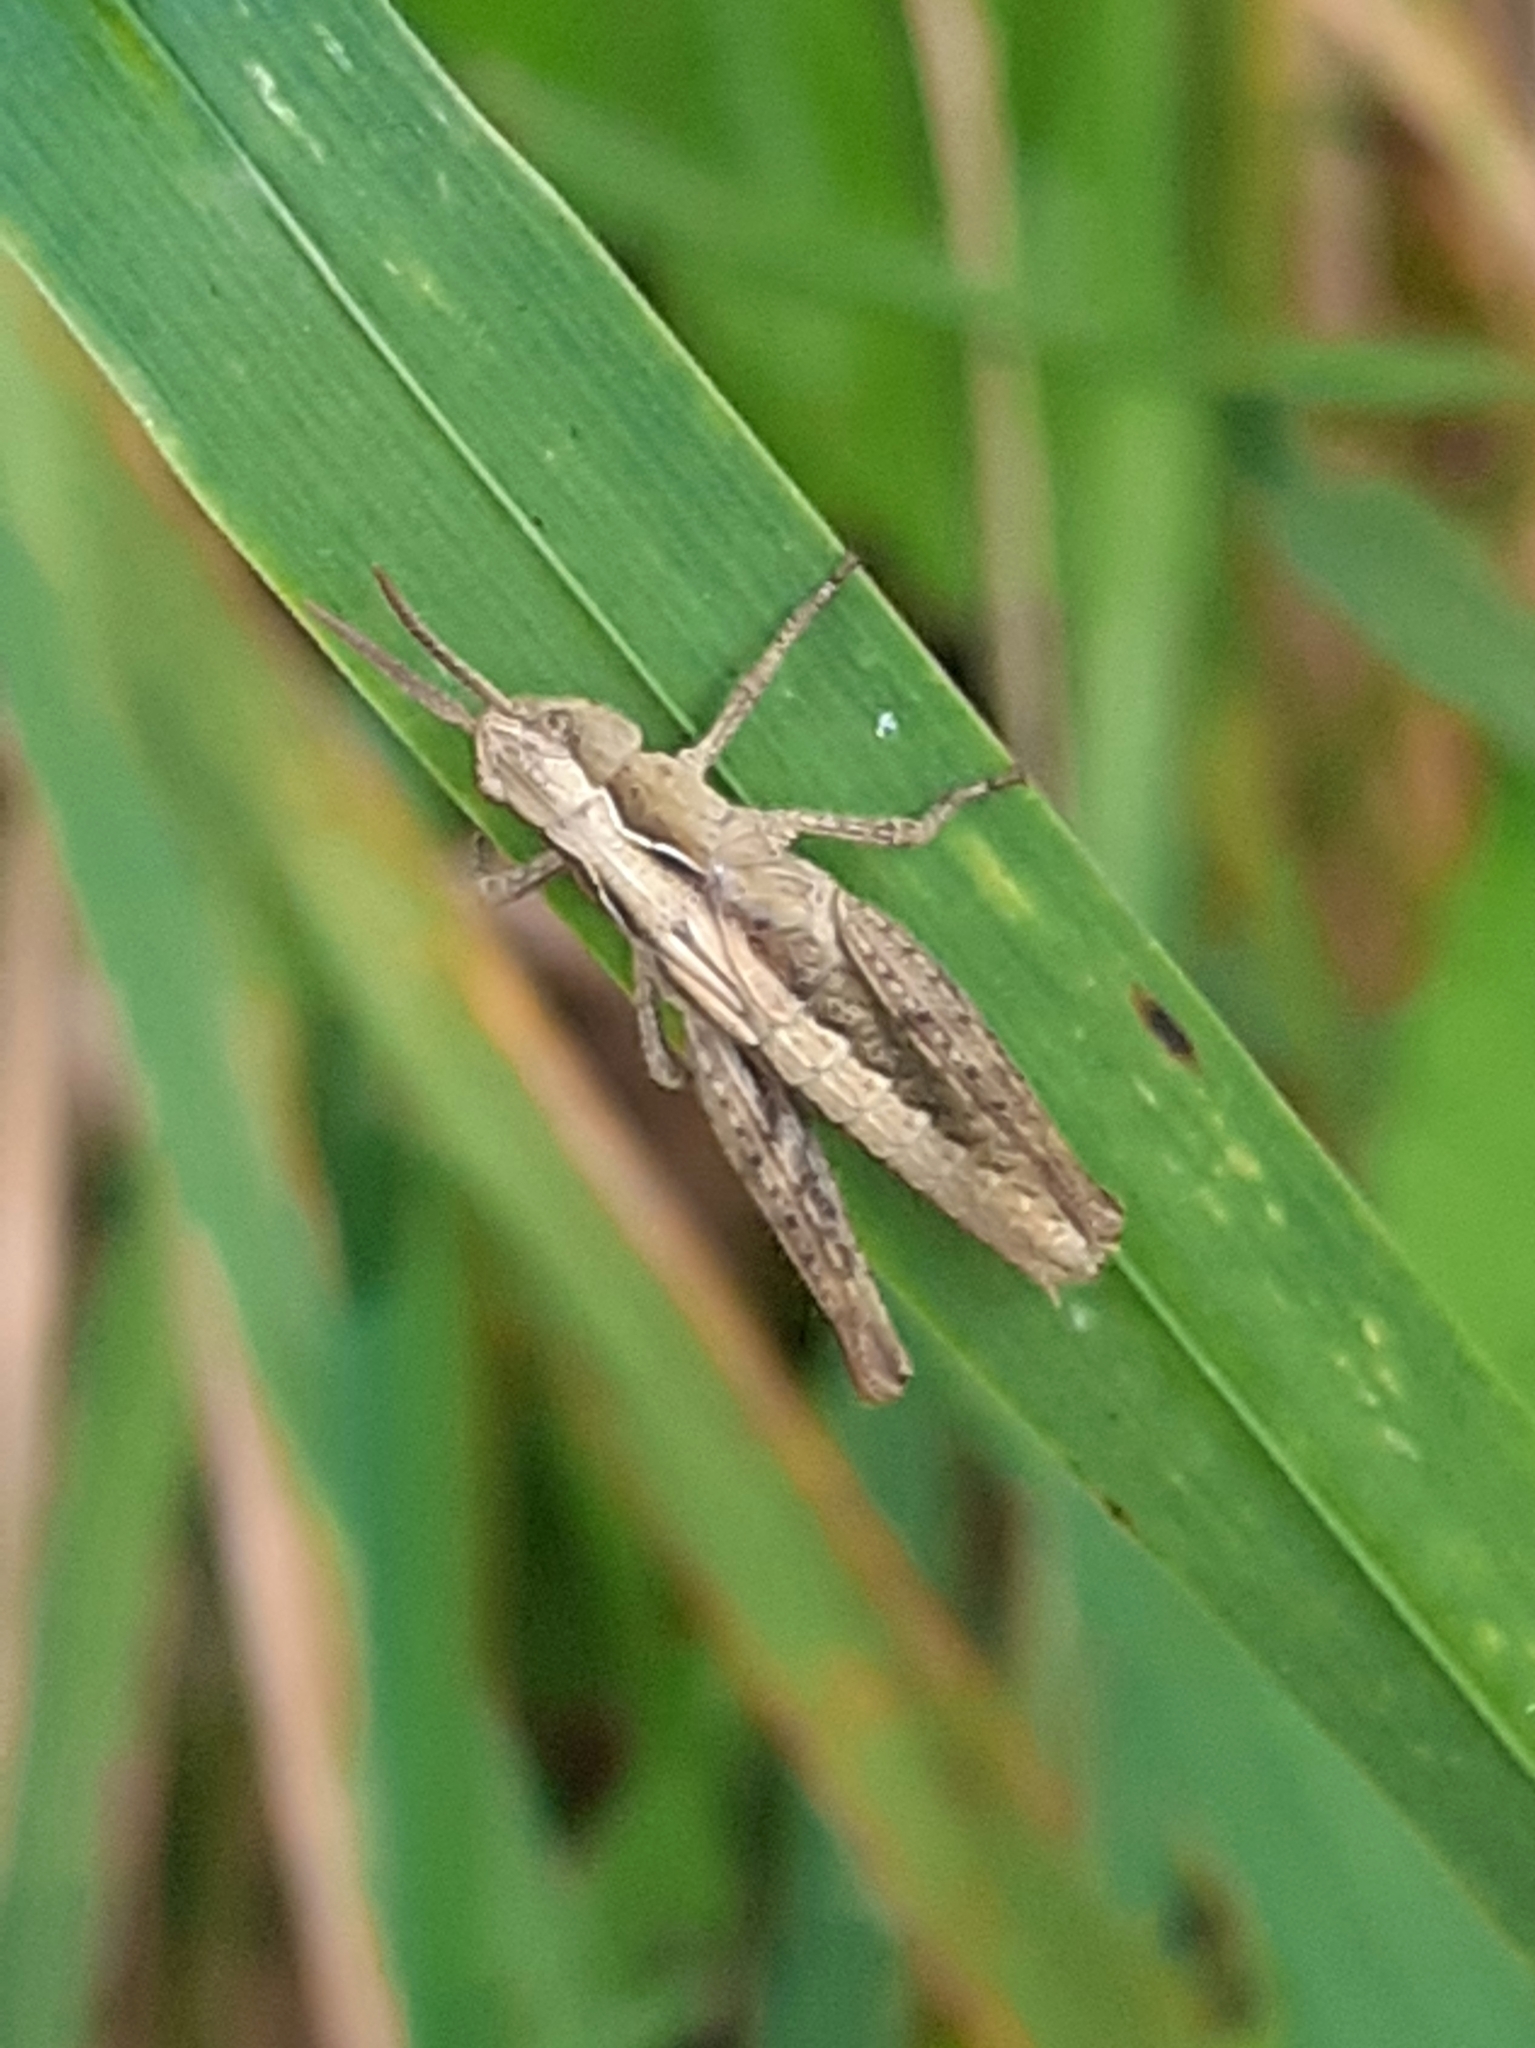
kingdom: Animalia
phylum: Arthropoda
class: Insecta
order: Orthoptera
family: Acrididae
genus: Chorthippus
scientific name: Chorthippus brunneus
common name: Field grasshopper
